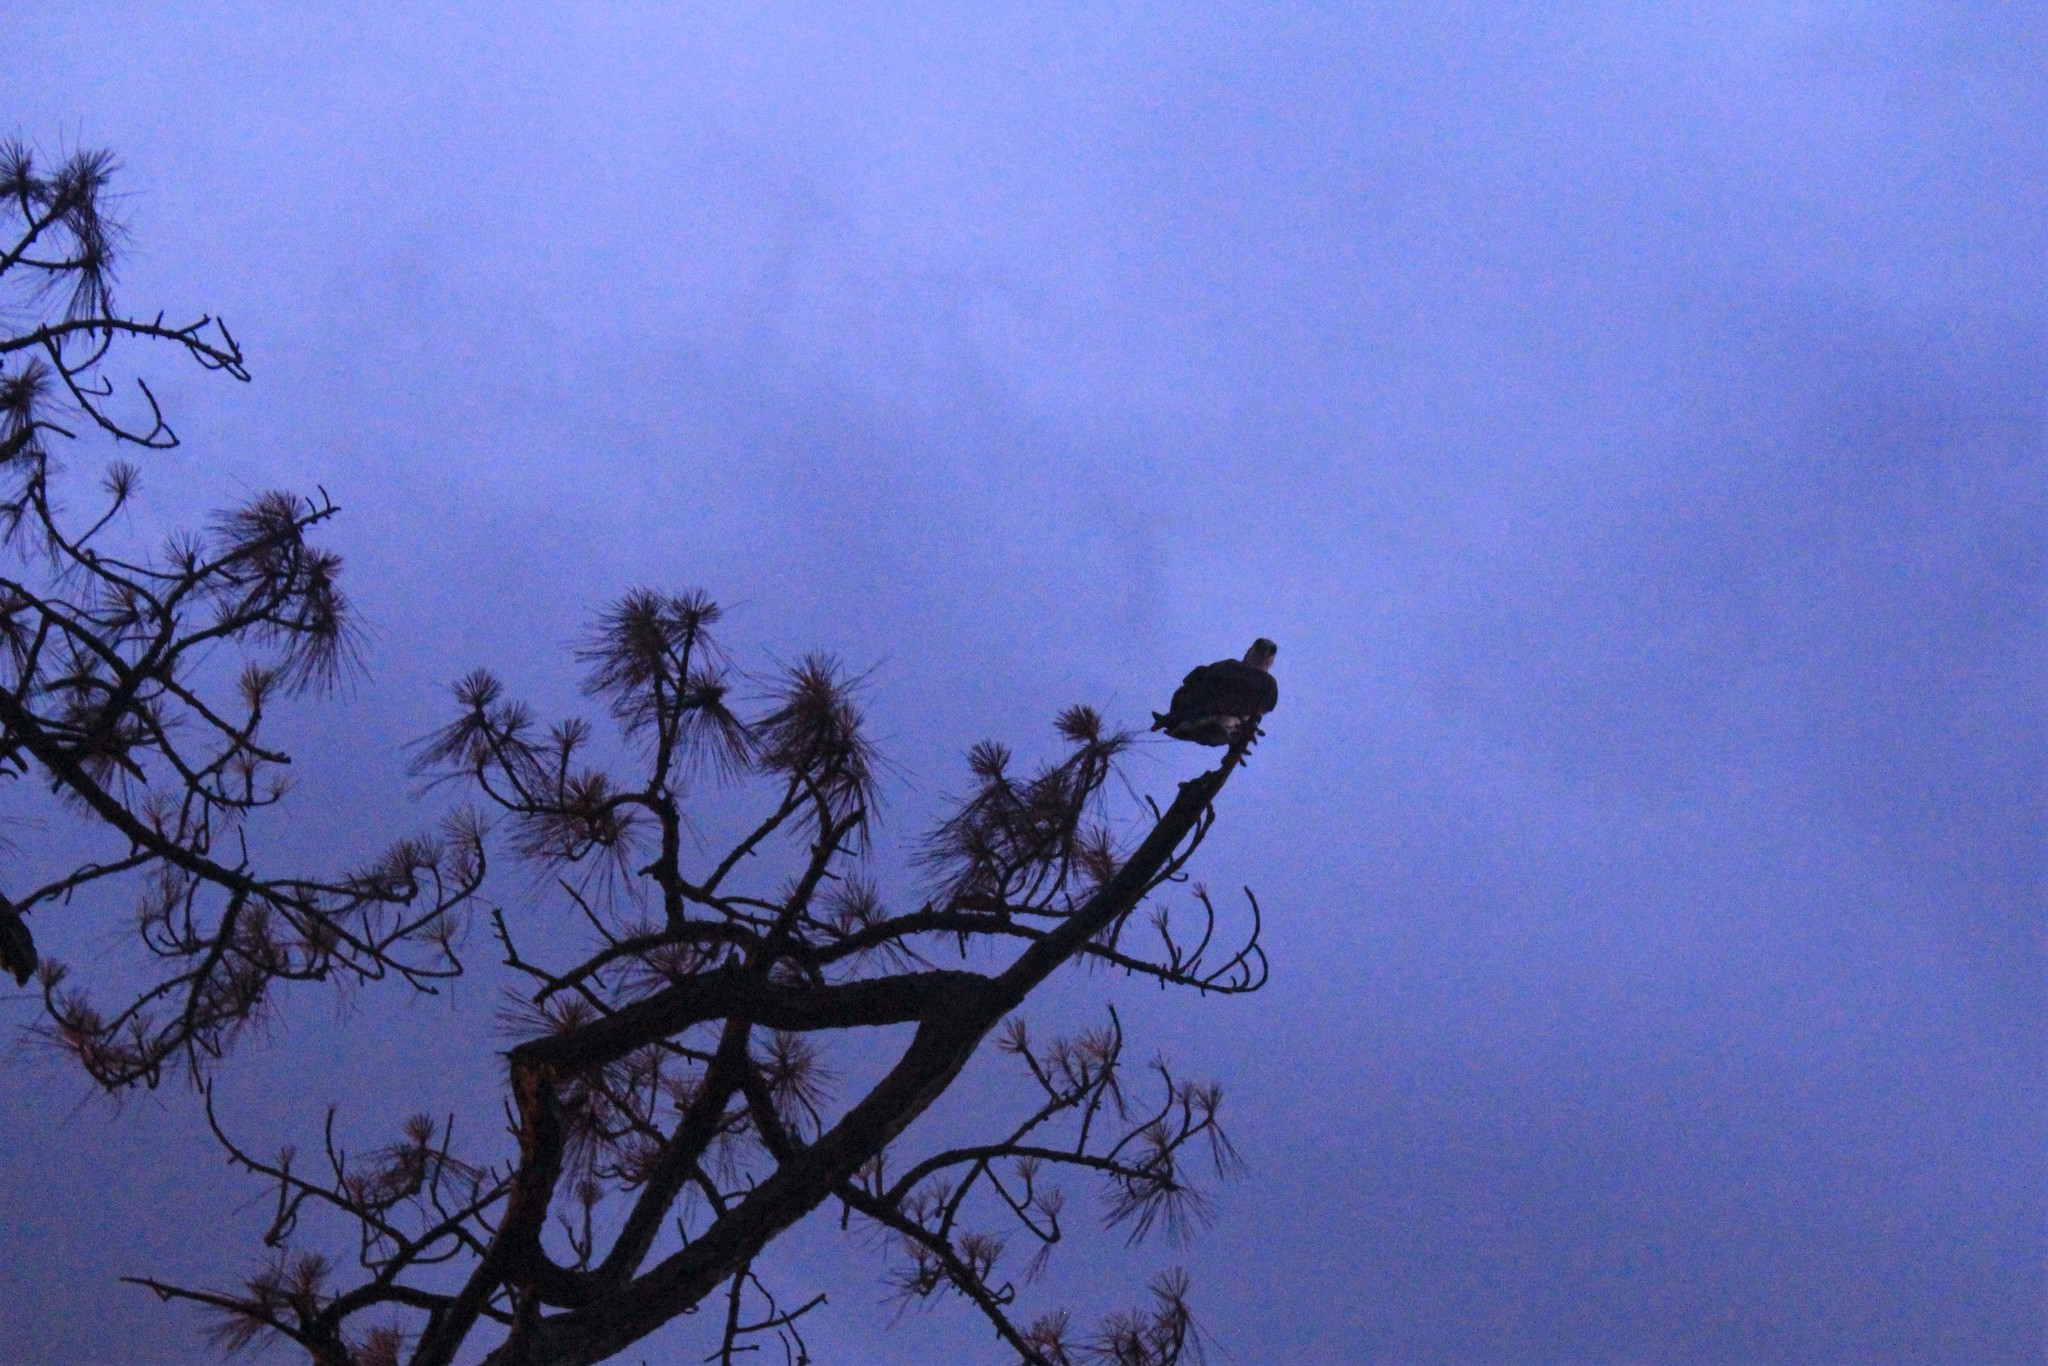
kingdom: Animalia
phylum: Chordata
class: Aves
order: Accipitriformes
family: Pandionidae
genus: Pandion
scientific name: Pandion haliaetus
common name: Osprey
